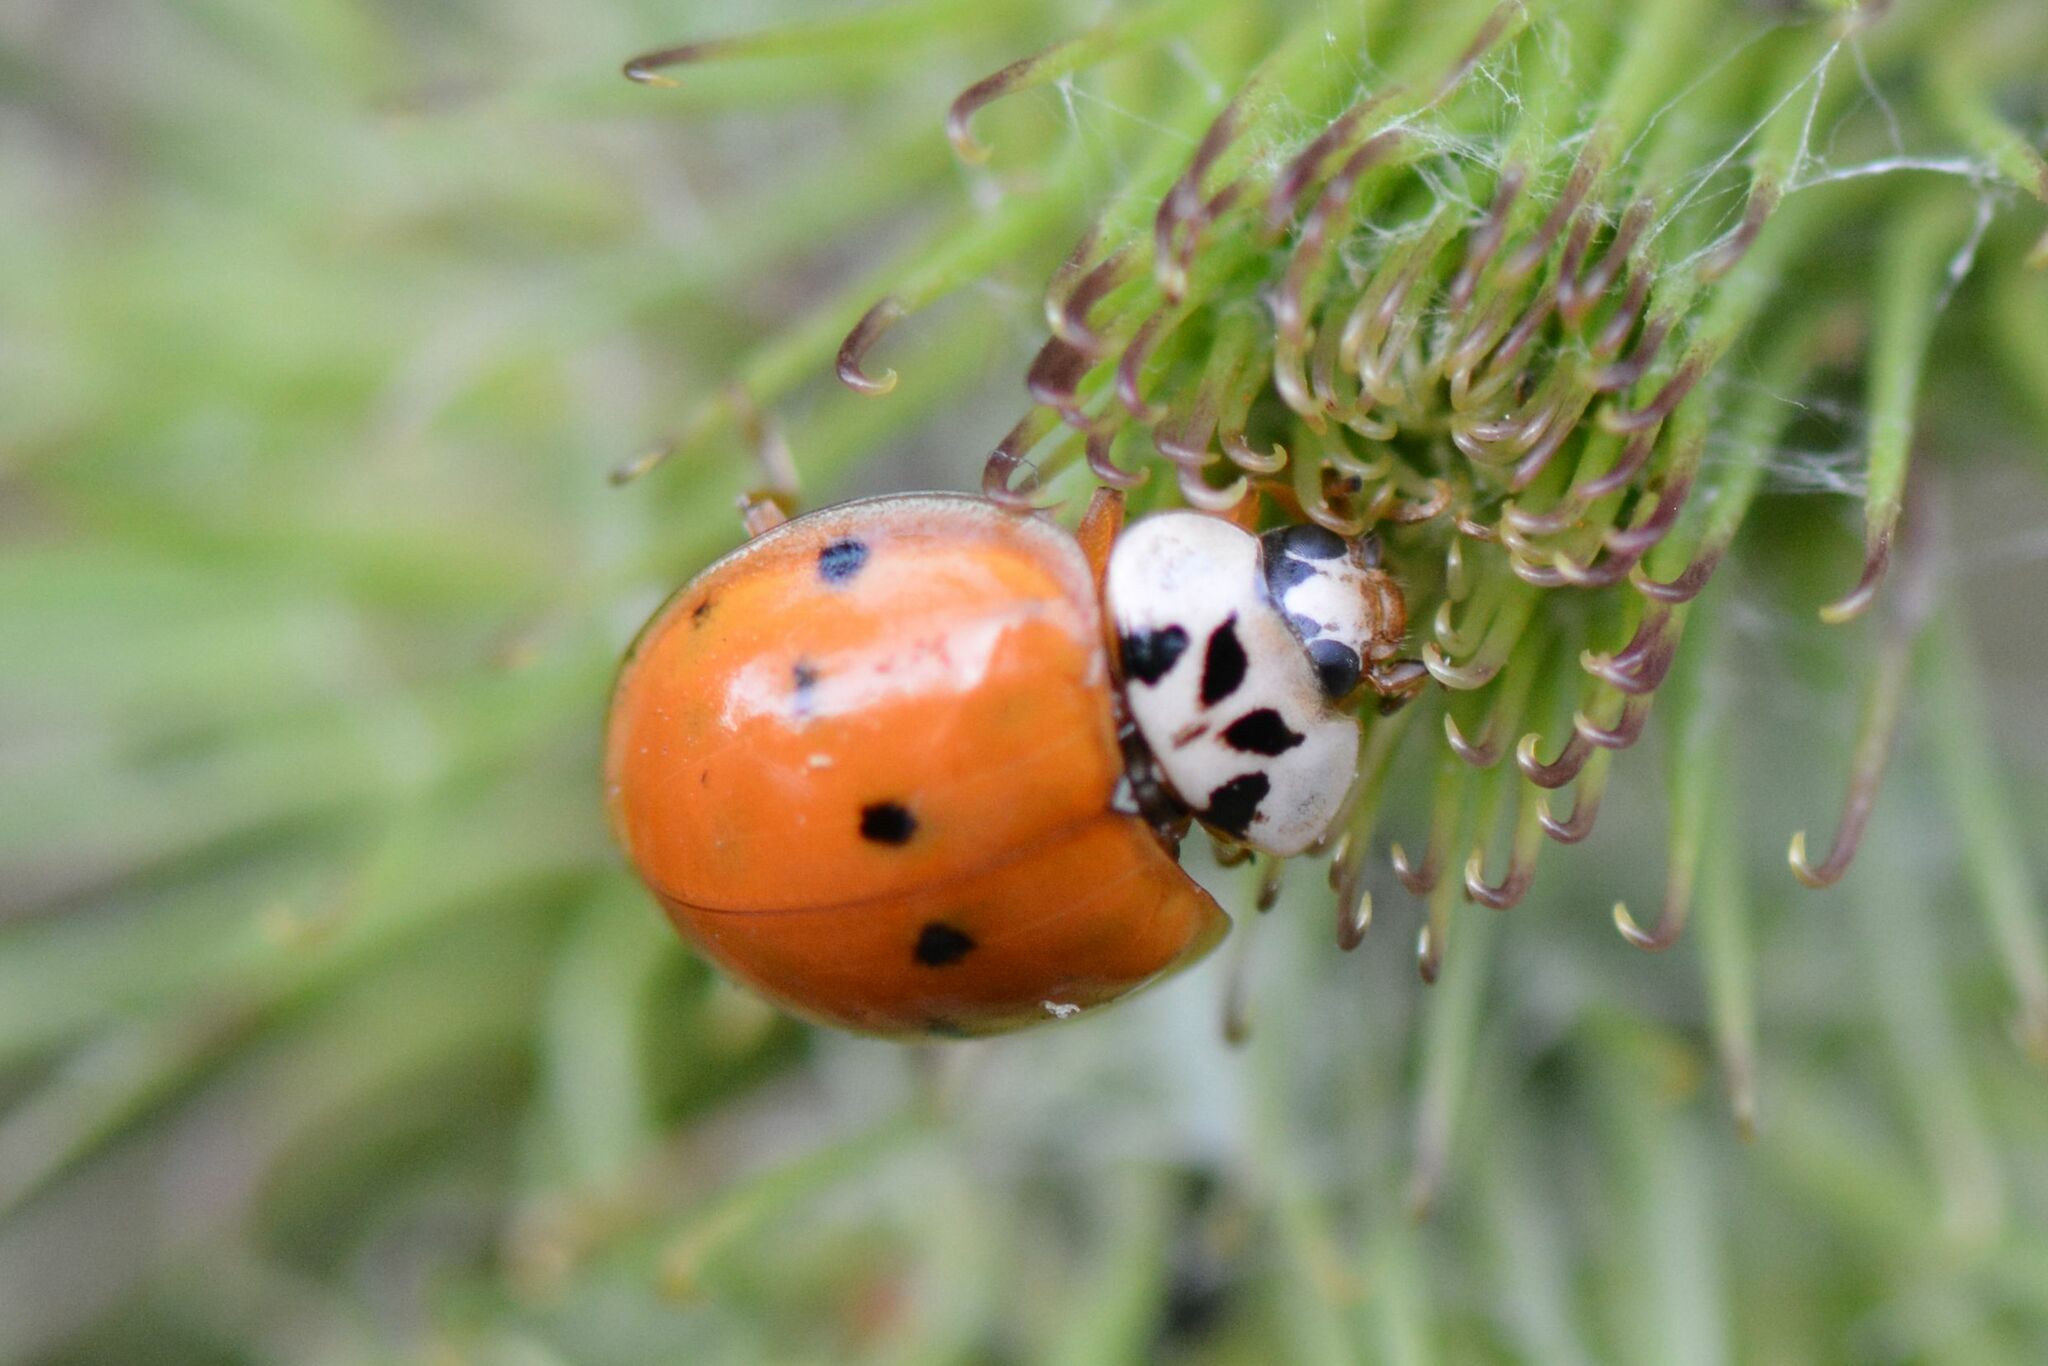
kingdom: Animalia
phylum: Arthropoda
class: Insecta
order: Coleoptera
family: Coccinellidae
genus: Harmonia
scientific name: Harmonia axyridis
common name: Harlequin ladybird
